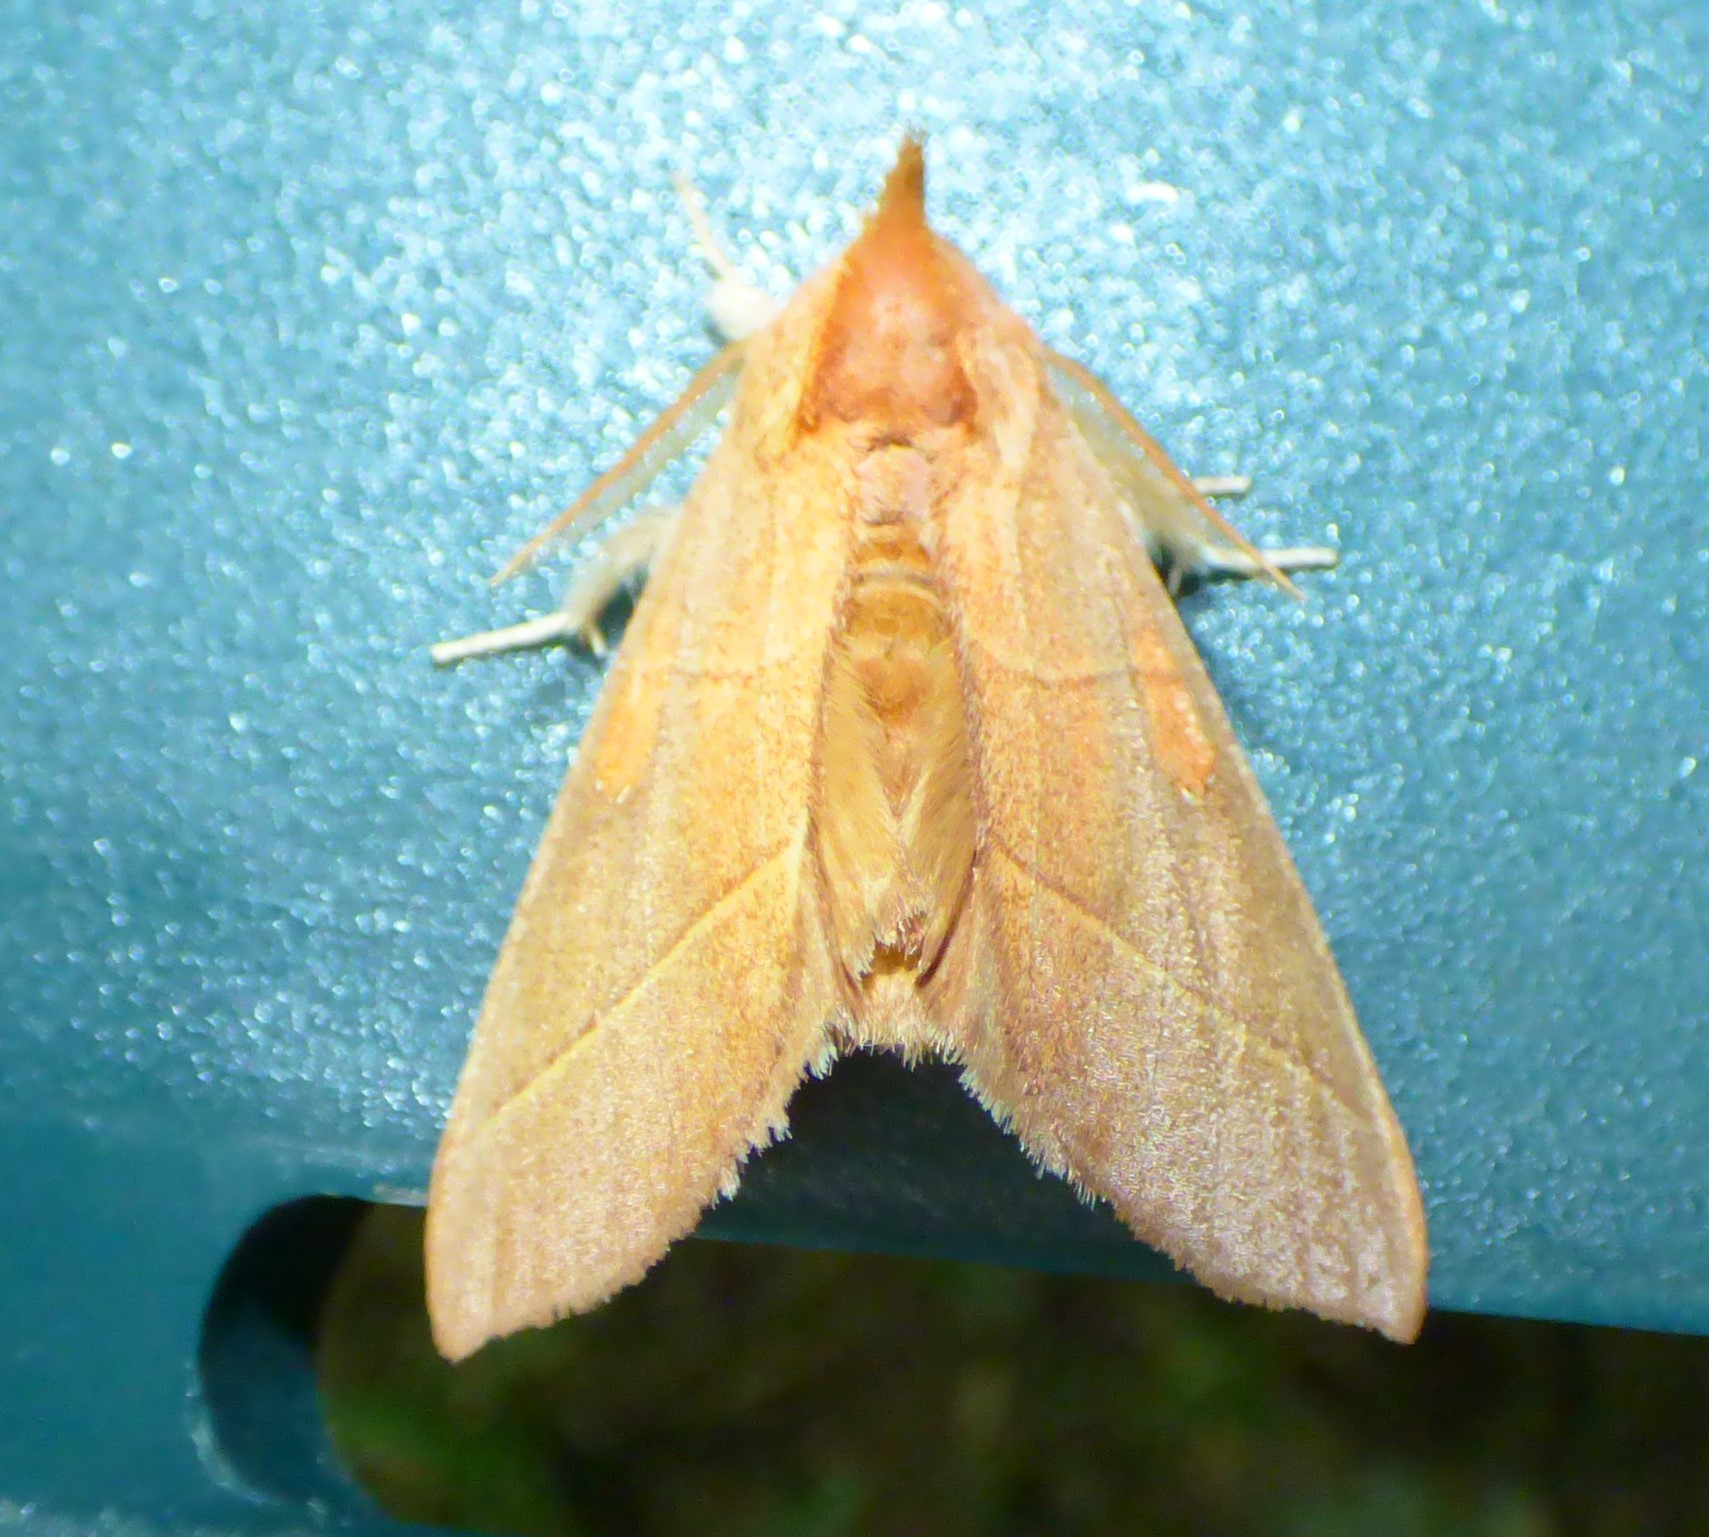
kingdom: Animalia
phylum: Arthropoda
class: Insecta
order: Lepidoptera
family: Notodontidae
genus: Nadata
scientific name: Nadata gibbosa
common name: White-dotted prominent
